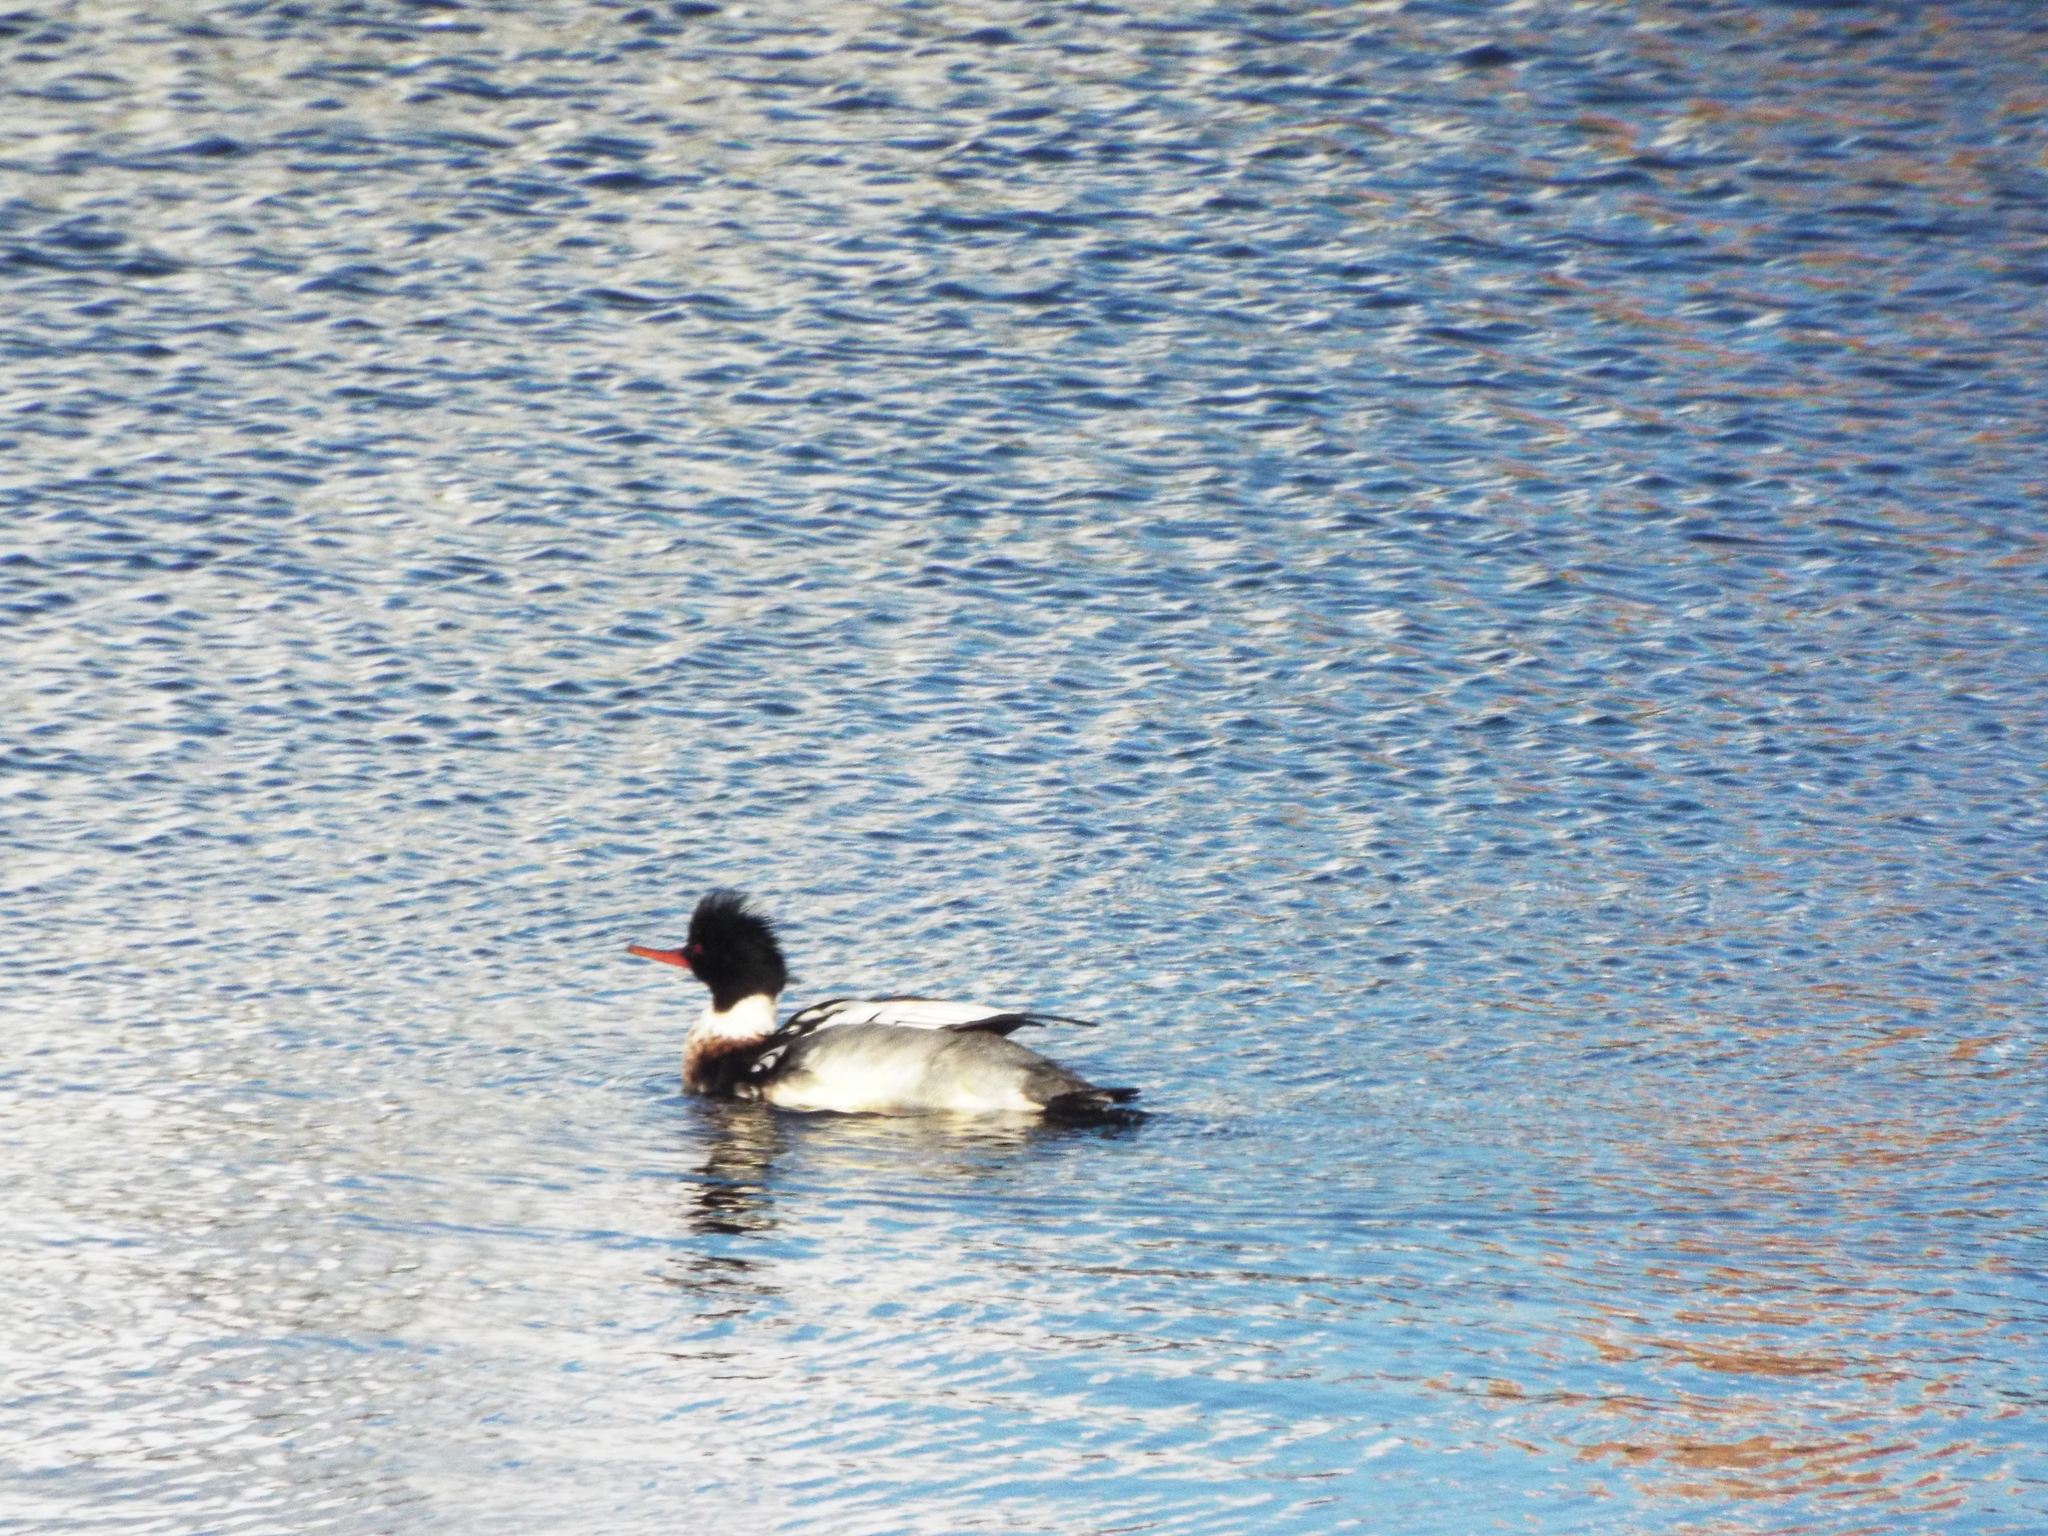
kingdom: Animalia
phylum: Chordata
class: Aves
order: Anseriformes
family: Anatidae
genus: Mergus
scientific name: Mergus serrator
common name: Red-breasted merganser
